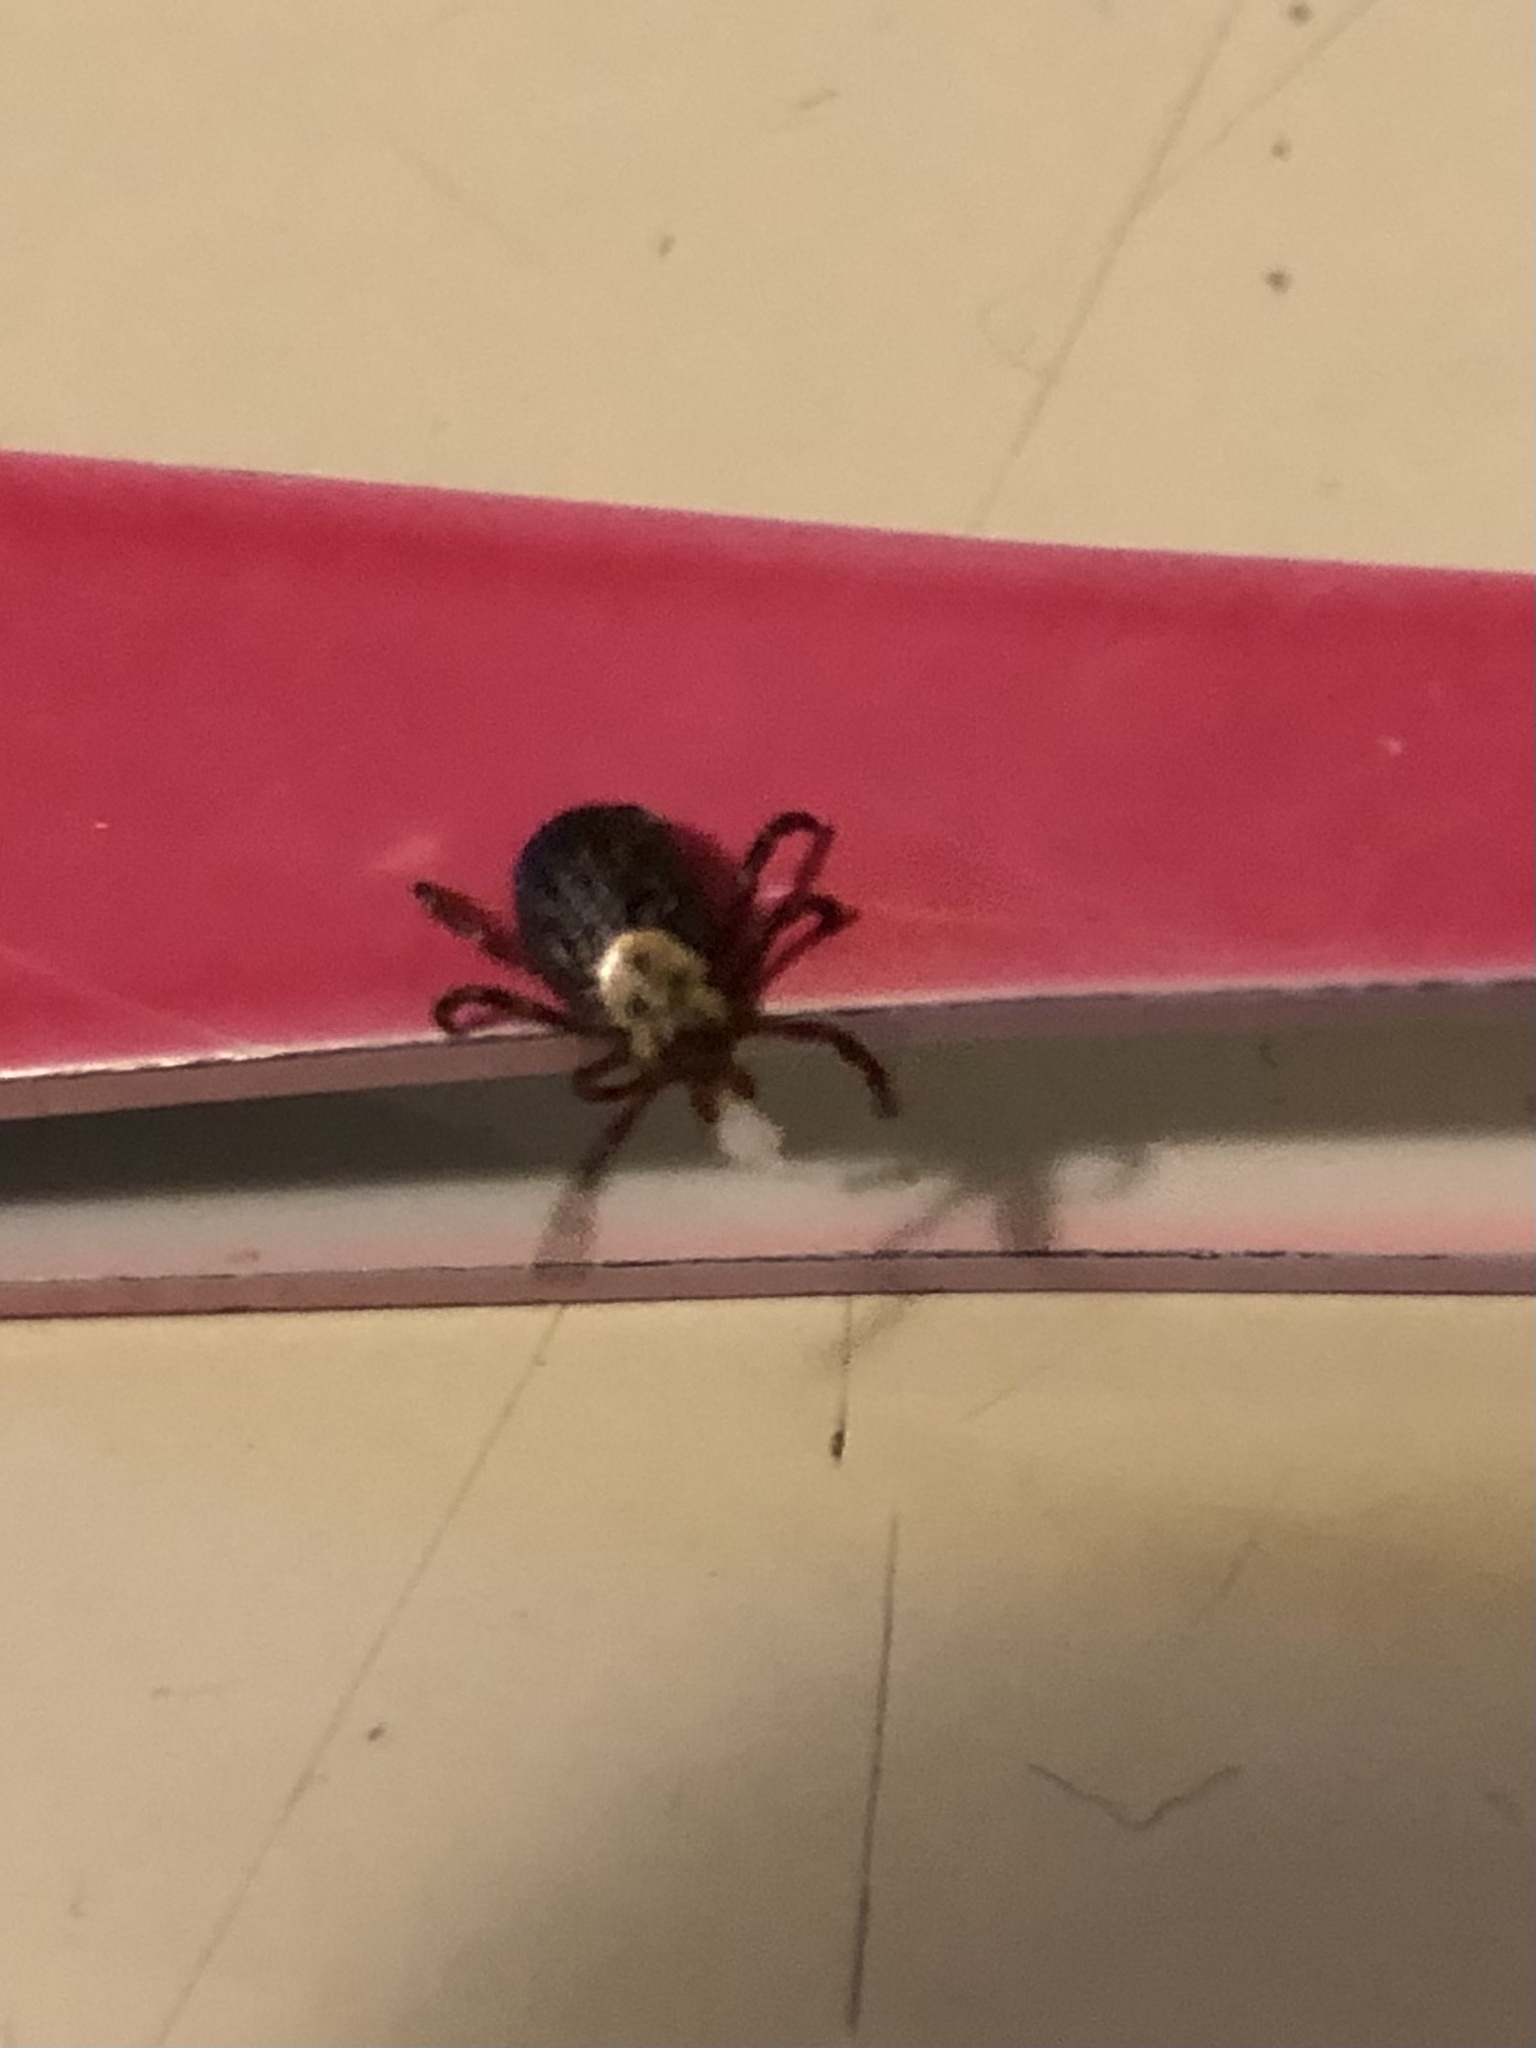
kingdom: Animalia
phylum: Arthropoda
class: Arachnida
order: Ixodida
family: Ixodidae
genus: Dermacentor
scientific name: Dermacentor variabilis
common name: American dog tick
